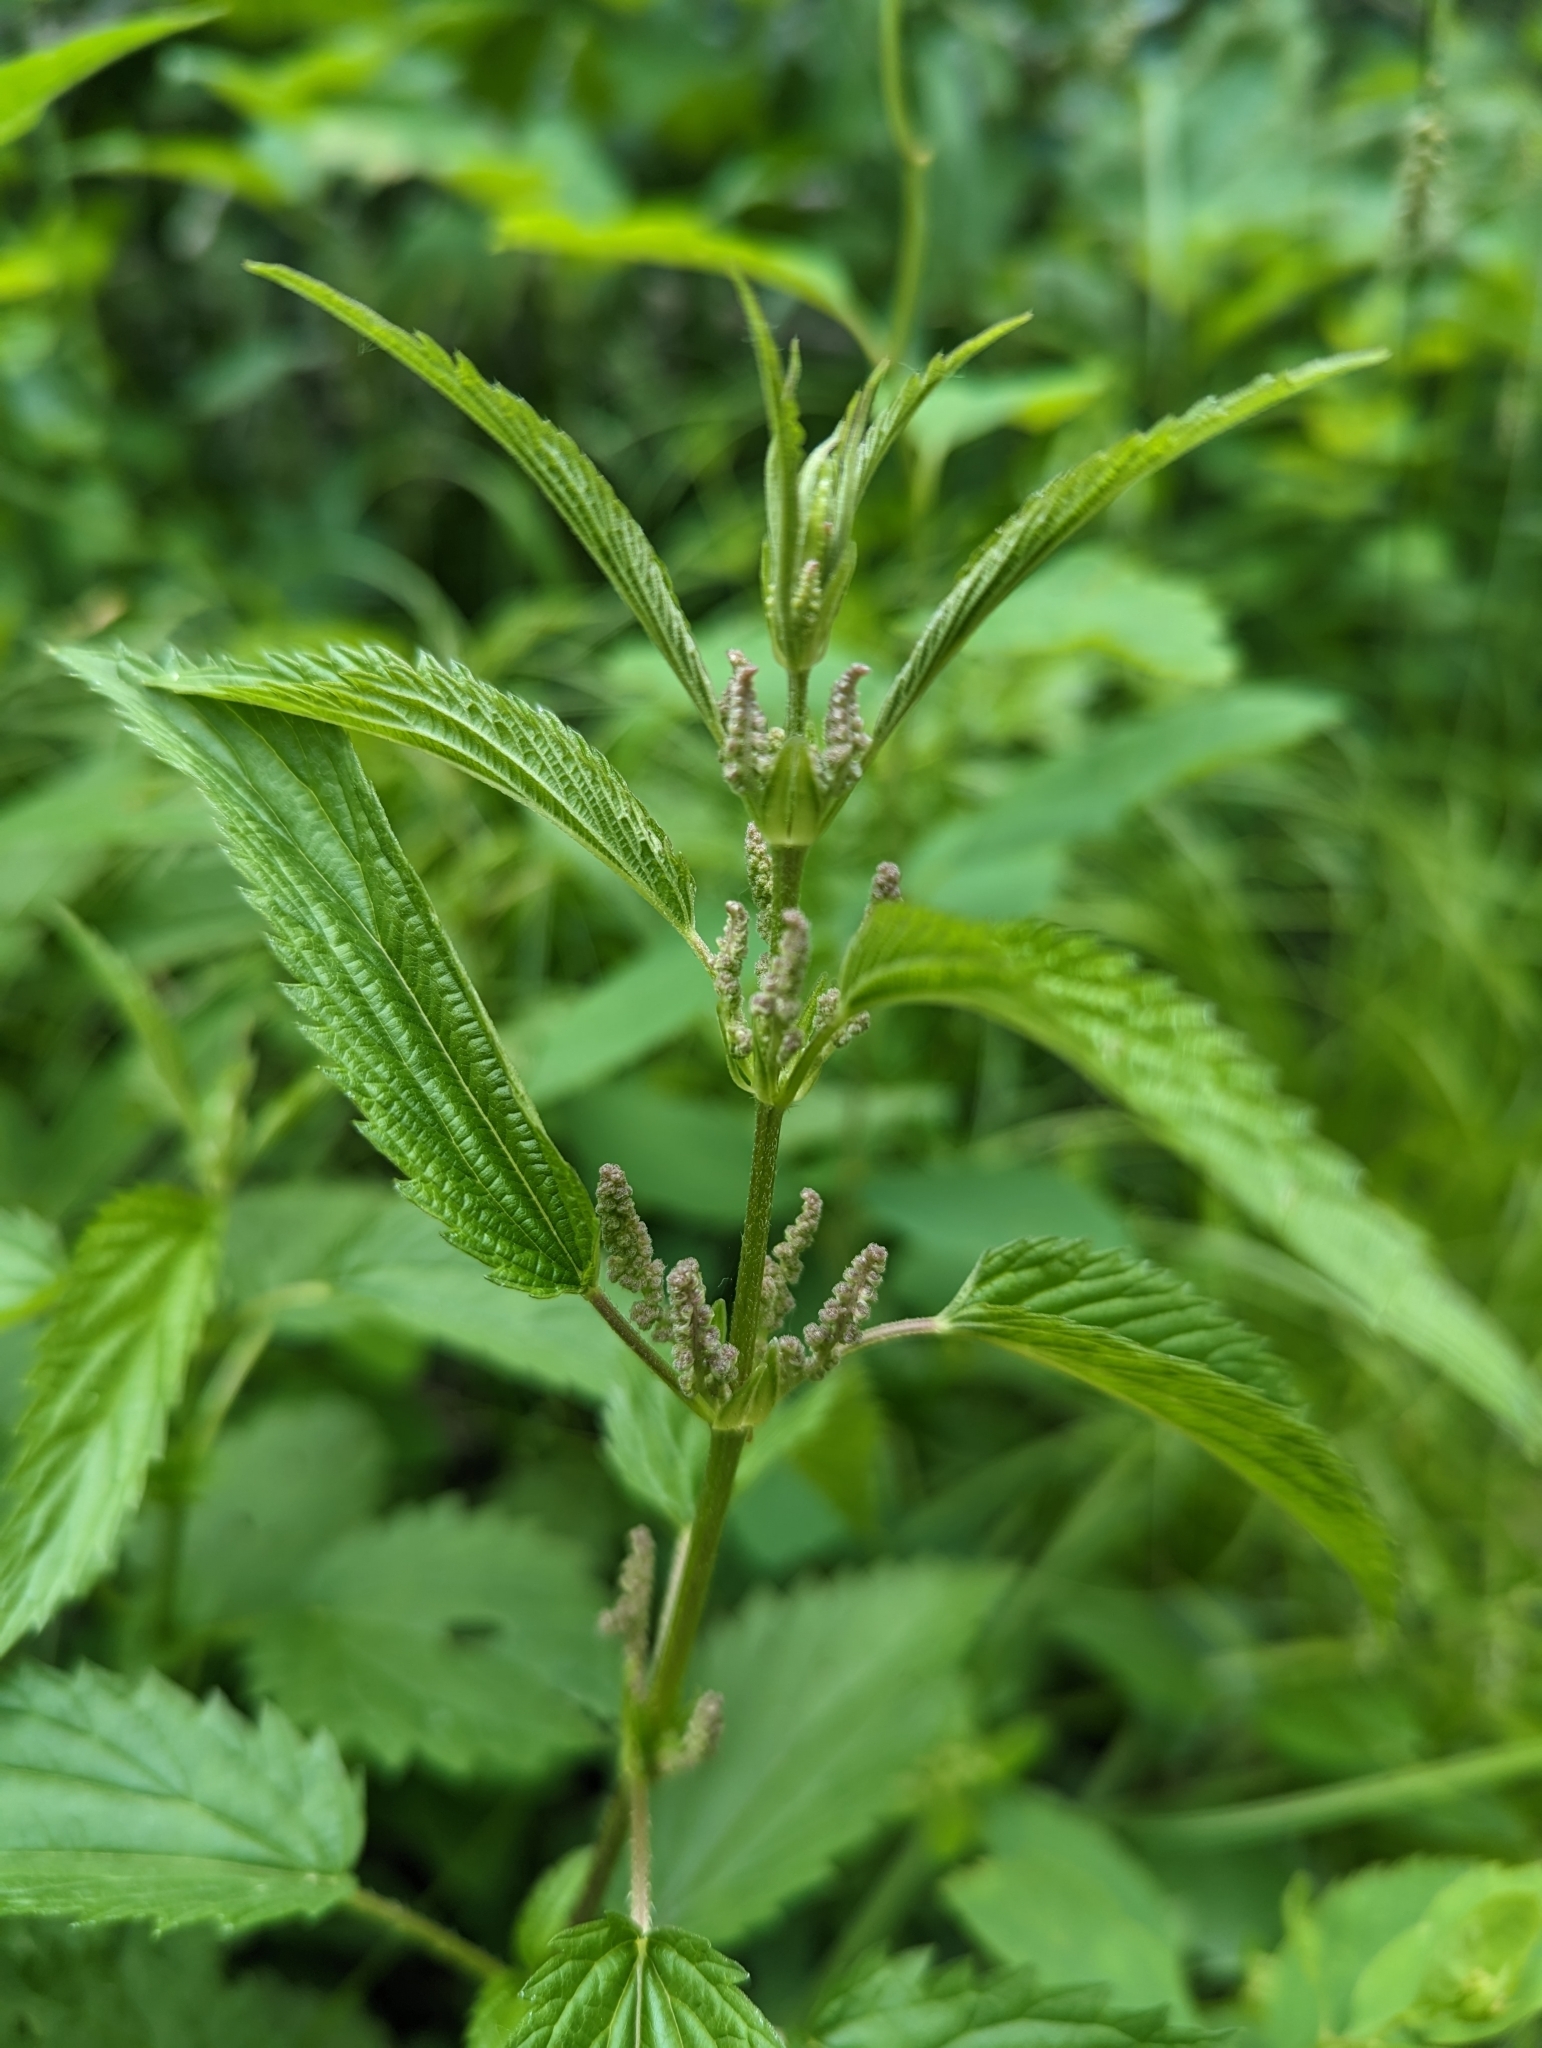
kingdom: Plantae
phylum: Tracheophyta
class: Magnoliopsida
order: Rosales
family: Urticaceae
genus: Urtica
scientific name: Urtica gracilis
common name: Slender stinging nettle
